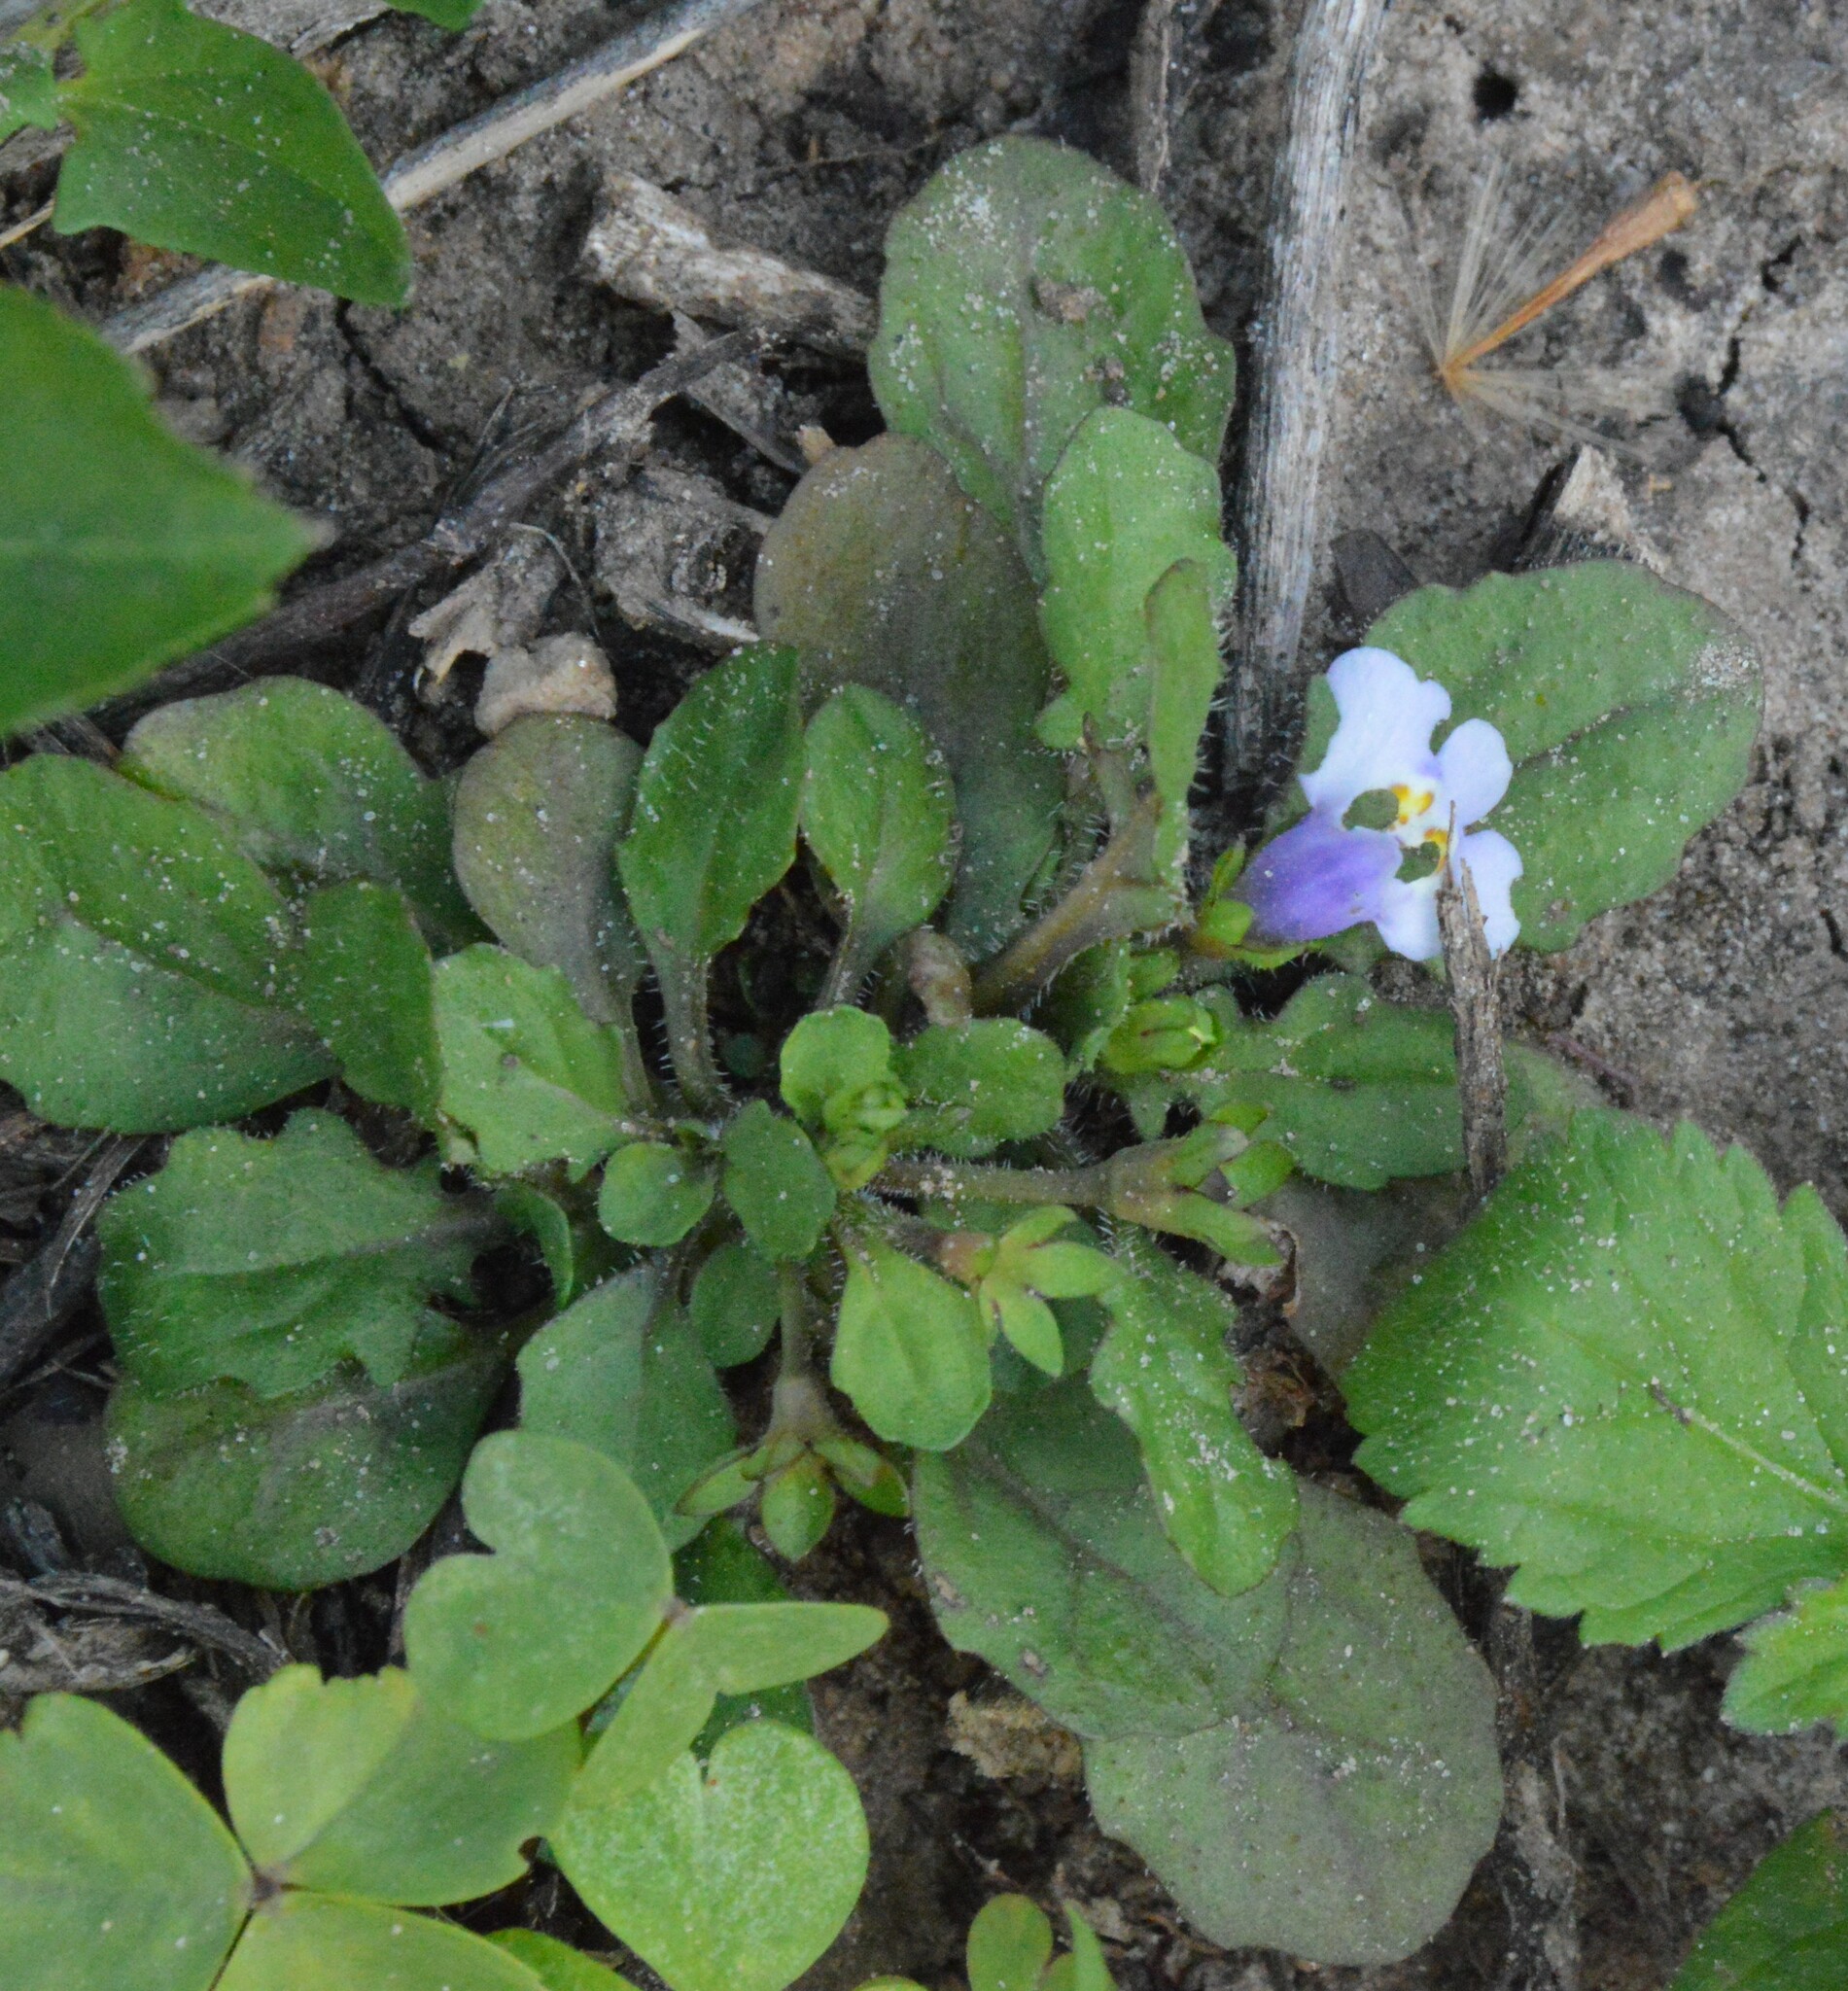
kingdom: Plantae
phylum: Tracheophyta
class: Magnoliopsida
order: Lamiales
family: Mazaceae
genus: Mazus
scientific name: Mazus pumilus
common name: Japanese mazus
